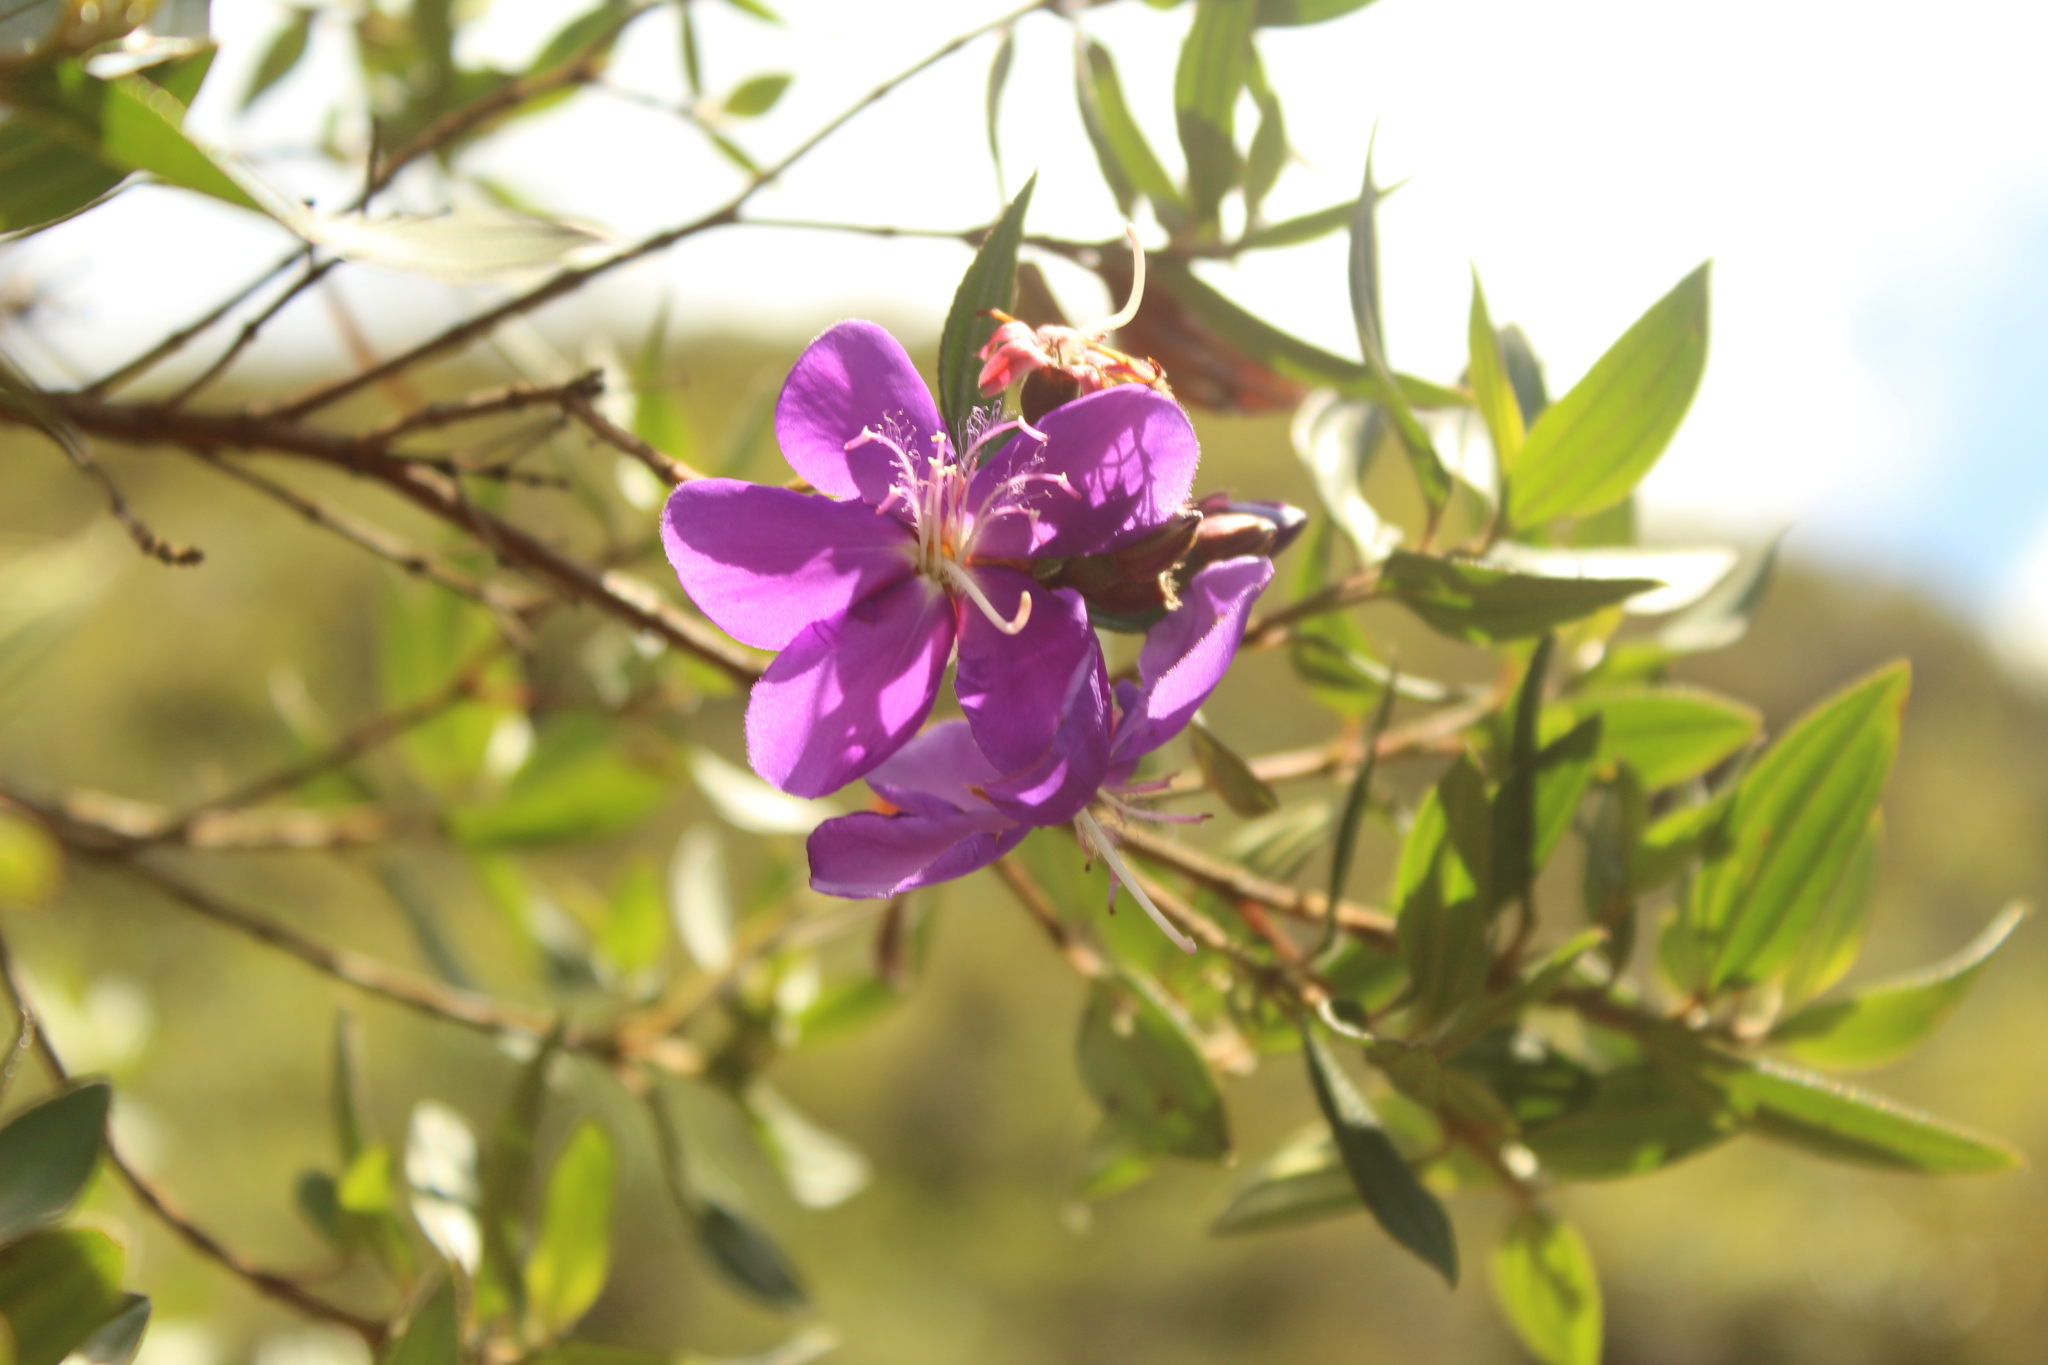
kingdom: Plantae
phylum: Tracheophyta
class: Magnoliopsida
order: Myrtales
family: Melastomataceae
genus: Pleroma
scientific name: Pleroma martiale
